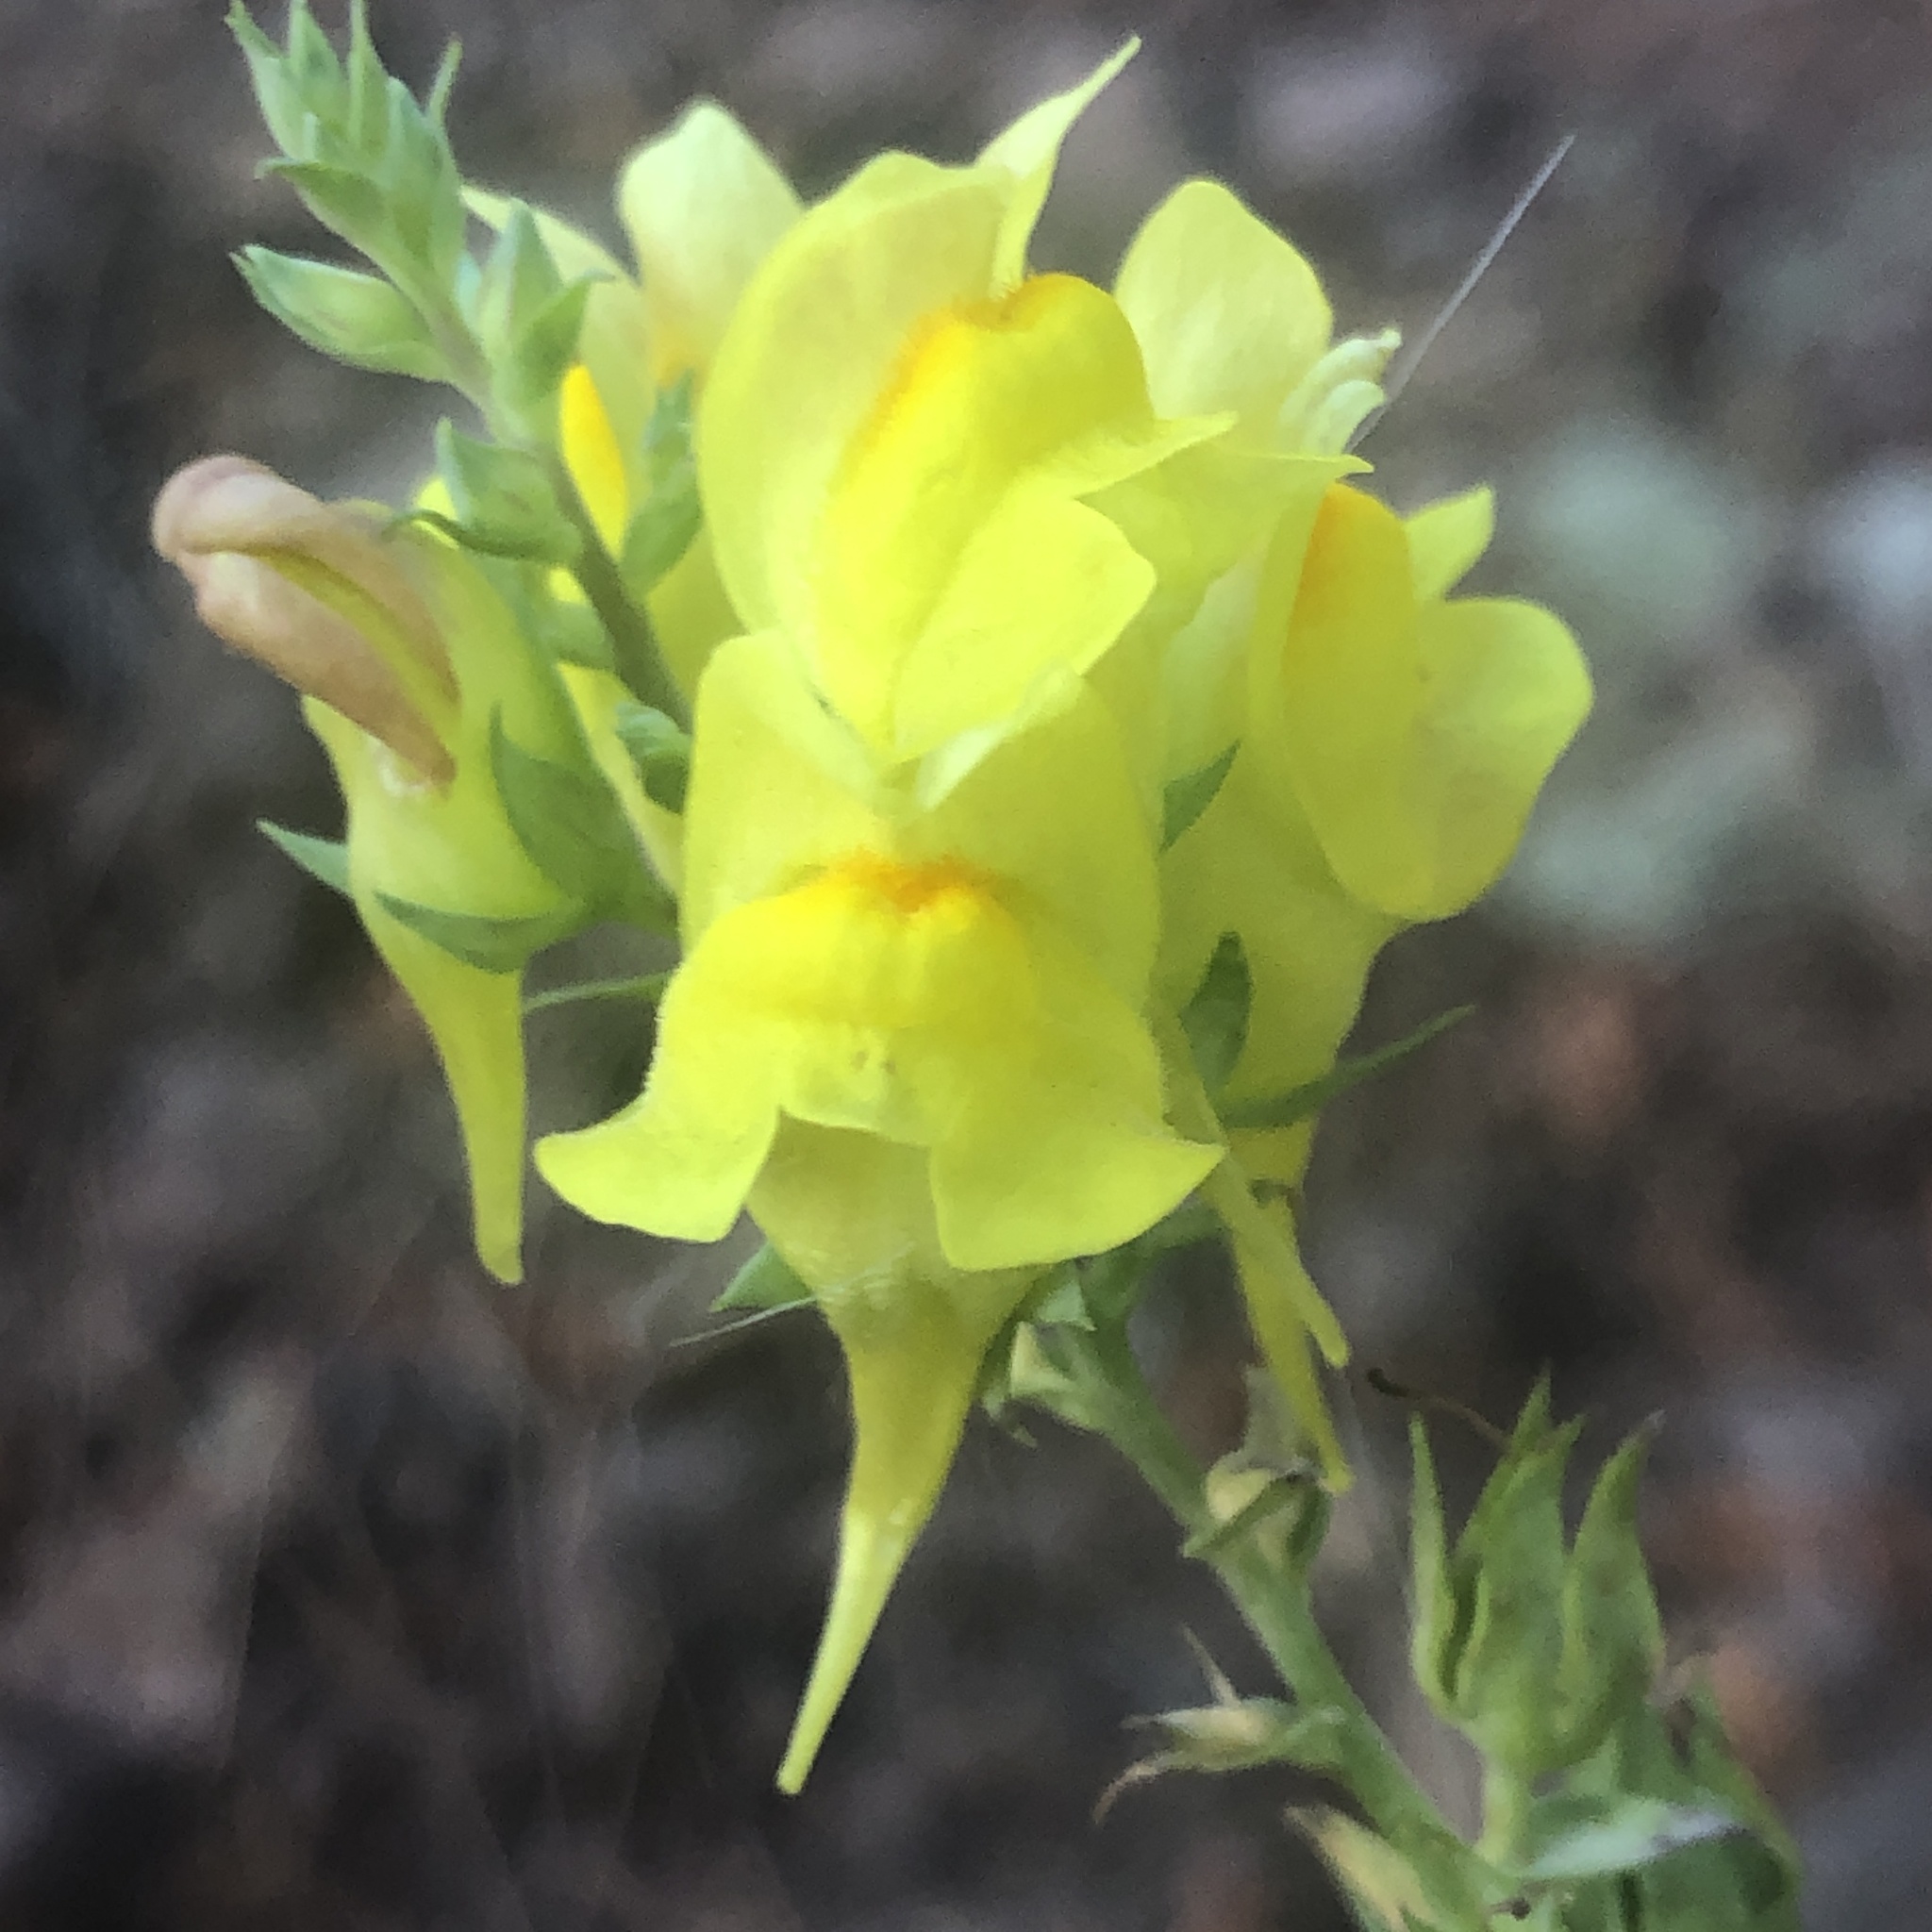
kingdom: Plantae
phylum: Tracheophyta
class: Magnoliopsida
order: Lamiales
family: Plantaginaceae
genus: Linaria
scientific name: Linaria dalmatica
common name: Dalmatian toadflax
